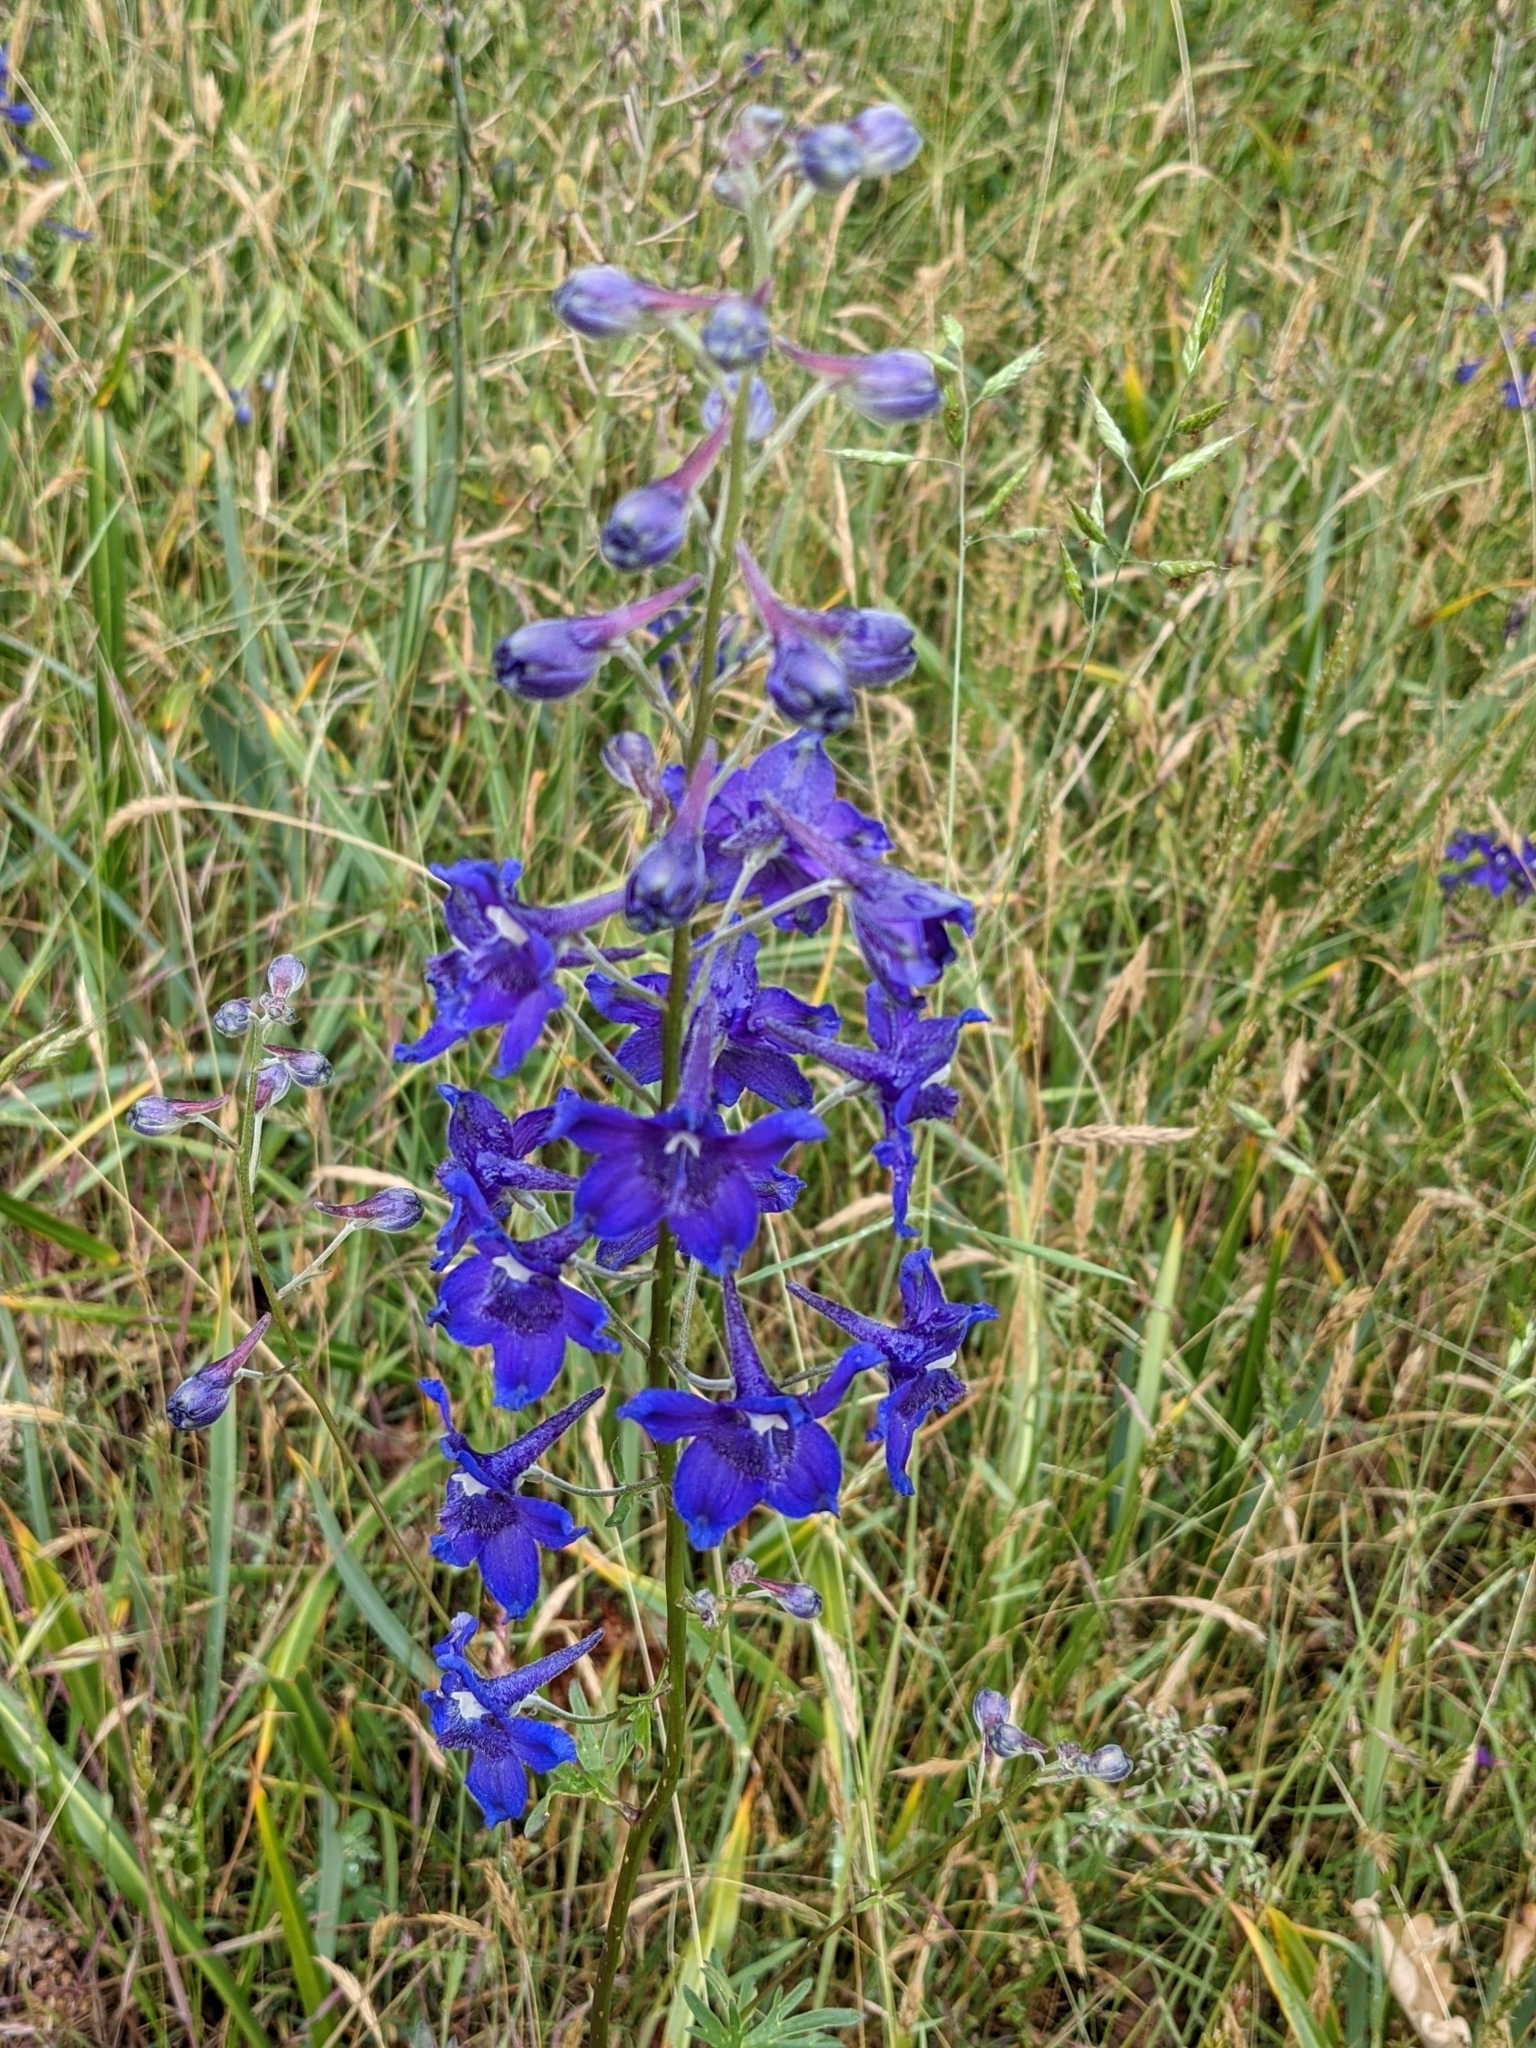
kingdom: Plantae
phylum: Tracheophyta
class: Magnoliopsida
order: Ranunculales
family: Ranunculaceae
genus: Delphinium
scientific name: Delphinium menziesii
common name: Menzies's larkspur
